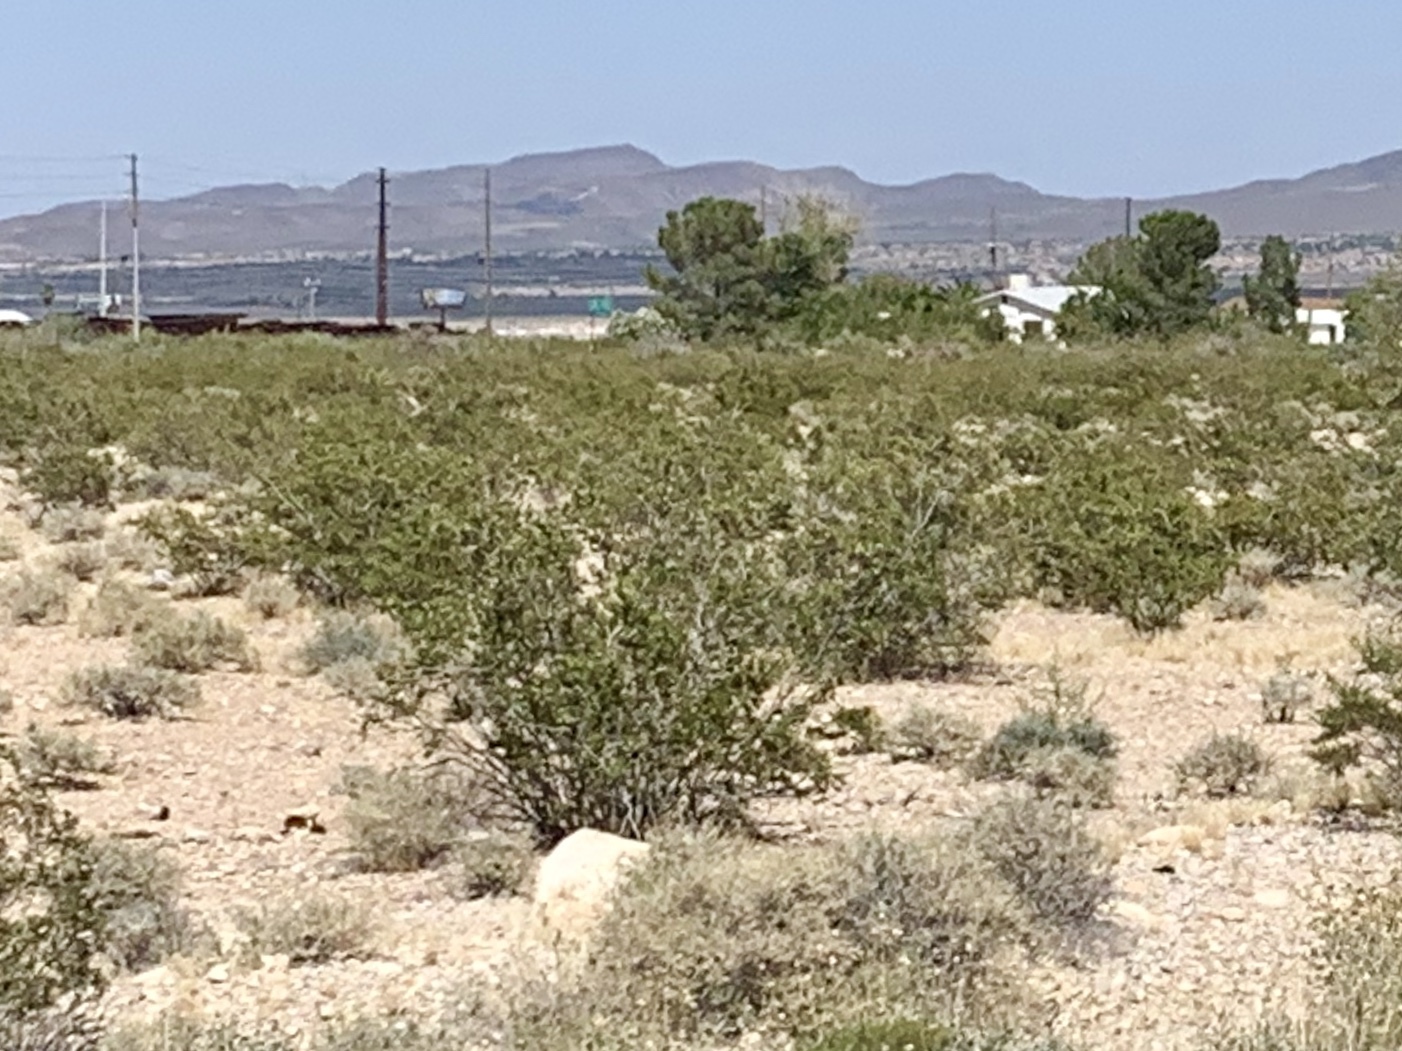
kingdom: Plantae
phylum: Tracheophyta
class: Magnoliopsida
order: Zygophyllales
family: Zygophyllaceae
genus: Larrea
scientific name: Larrea tridentata
